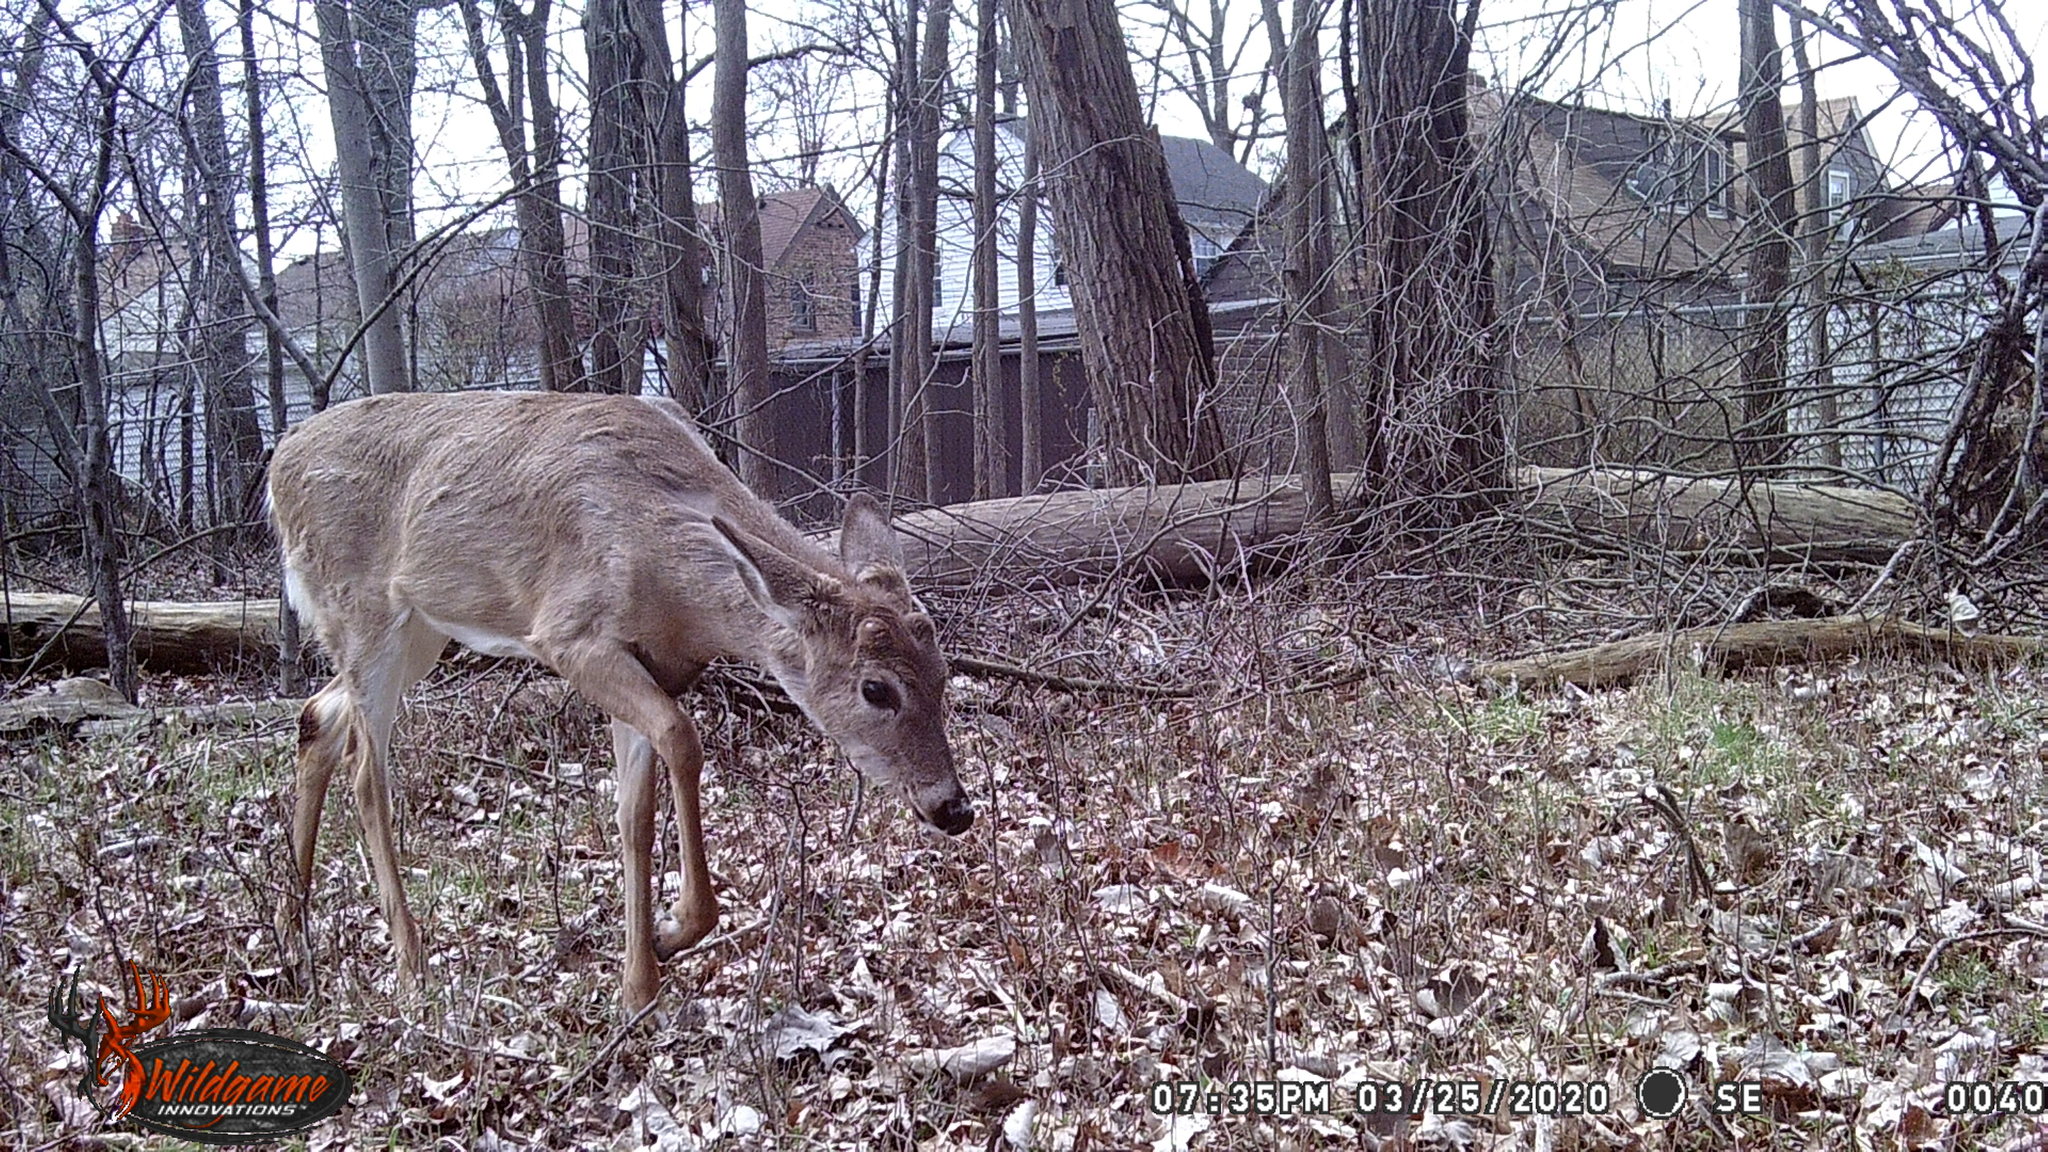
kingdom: Animalia
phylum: Chordata
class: Mammalia
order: Artiodactyla
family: Cervidae
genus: Odocoileus
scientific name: Odocoileus virginianus
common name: White-tailed deer
